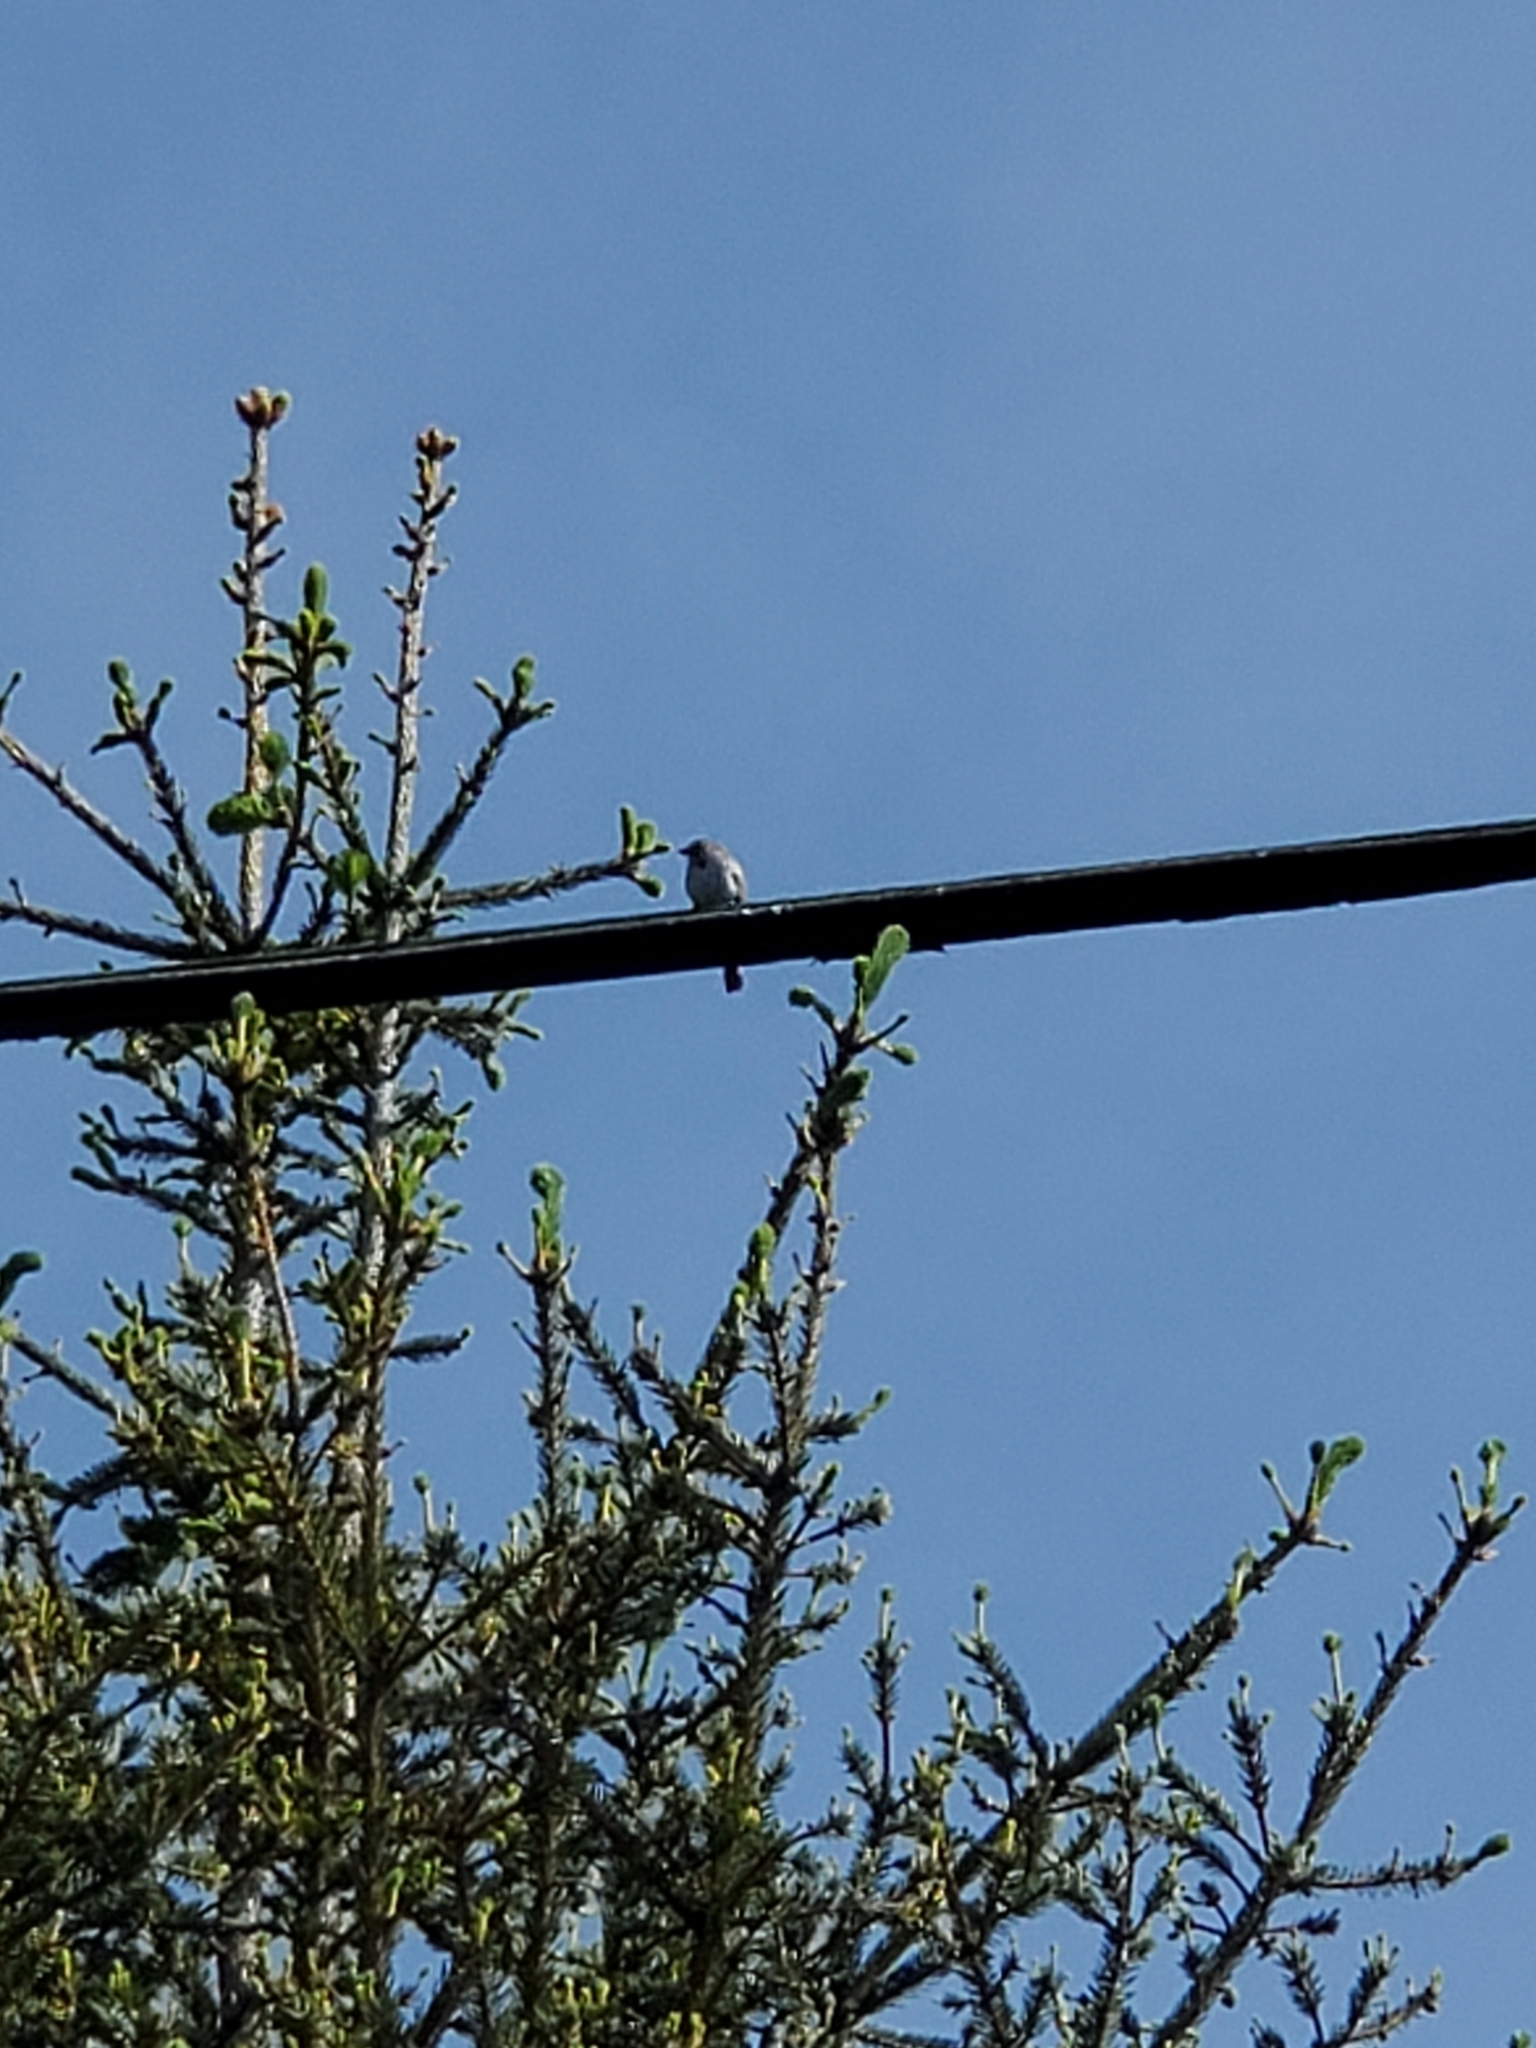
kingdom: Animalia
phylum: Chordata
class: Aves
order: Passeriformes
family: Passerellidae
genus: Melospiza
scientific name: Melospiza melodia
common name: Song sparrow
